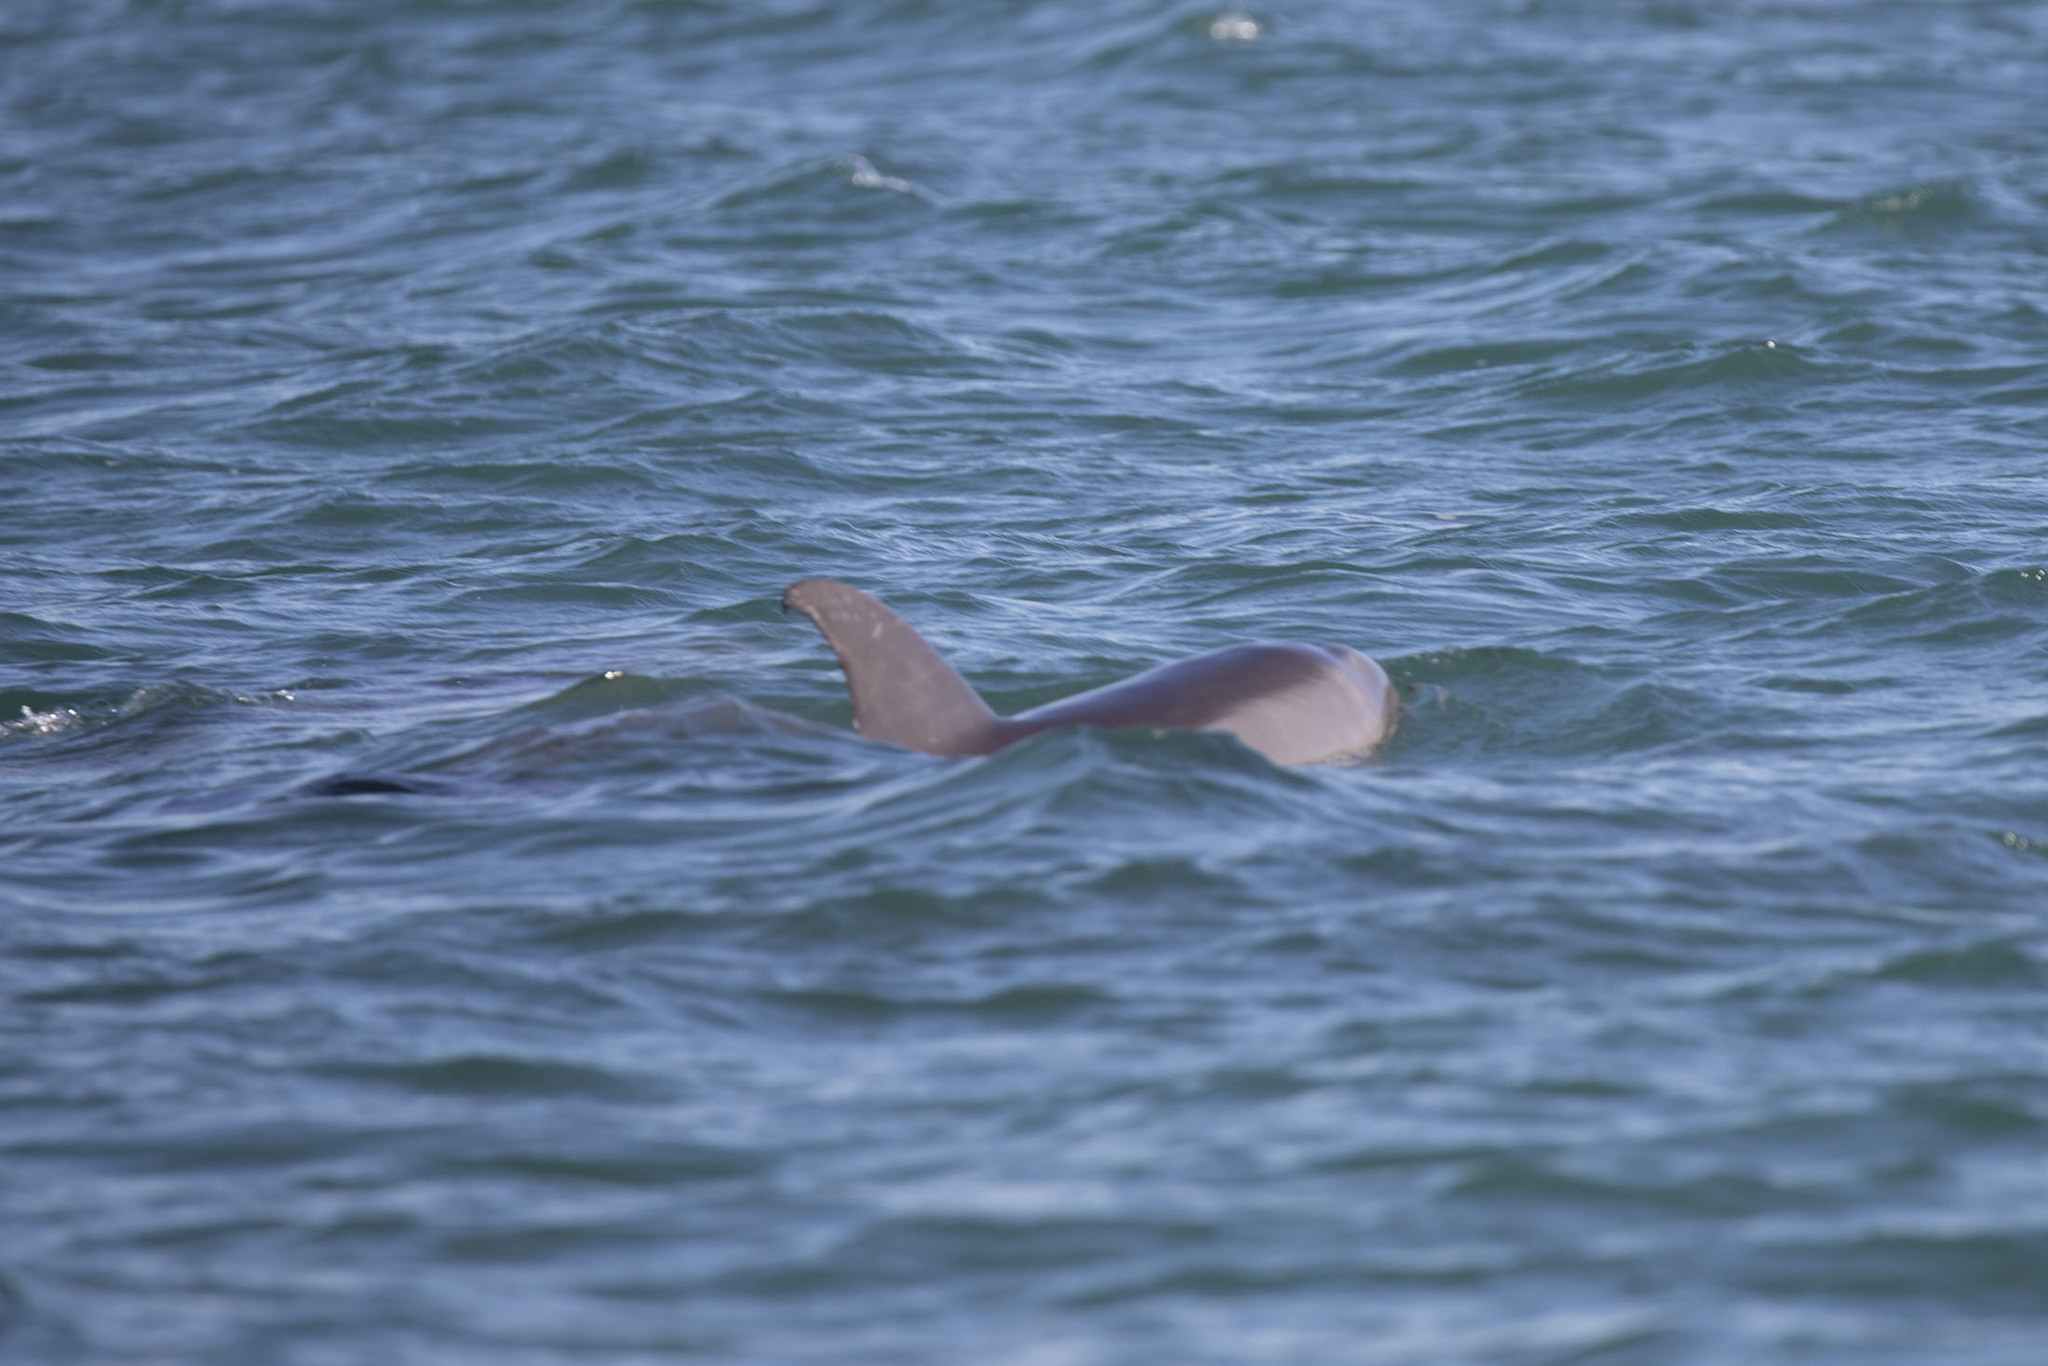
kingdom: Animalia
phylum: Chordata
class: Mammalia
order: Cetacea
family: Delphinidae
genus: Tursiops
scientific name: Tursiops truncatus
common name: Bottlenose dolphin
